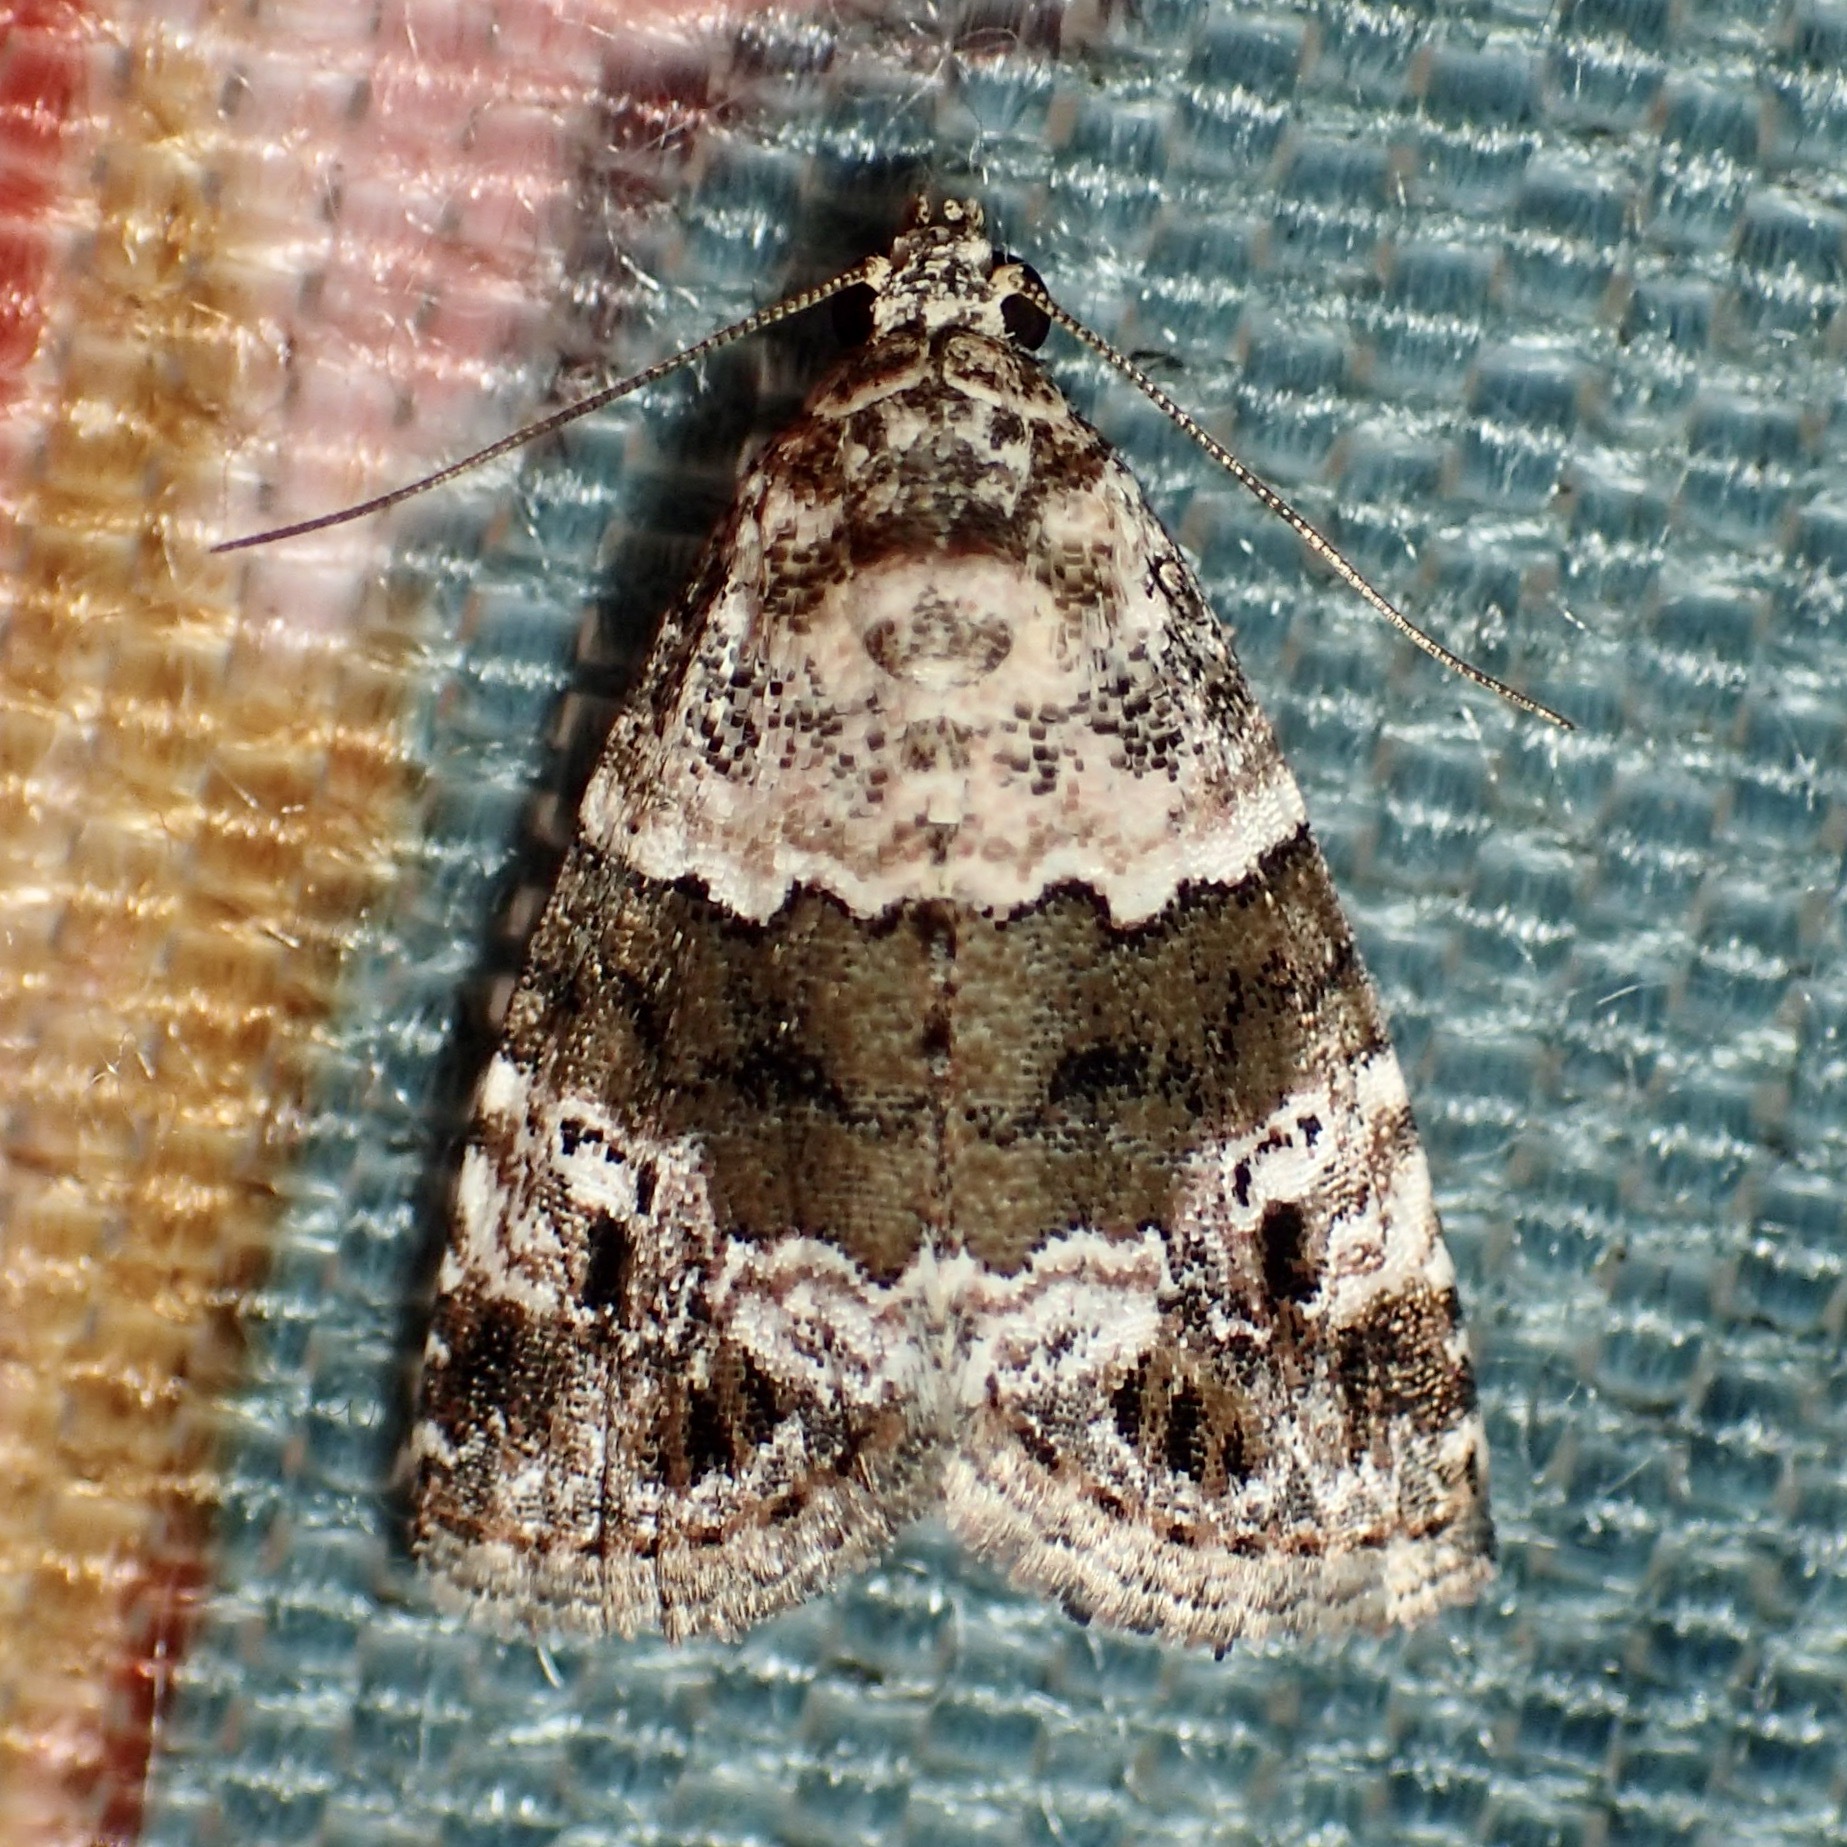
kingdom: Animalia
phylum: Arthropoda
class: Insecta
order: Lepidoptera
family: Noctuidae
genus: Maliattha
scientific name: Maliattha signifera
